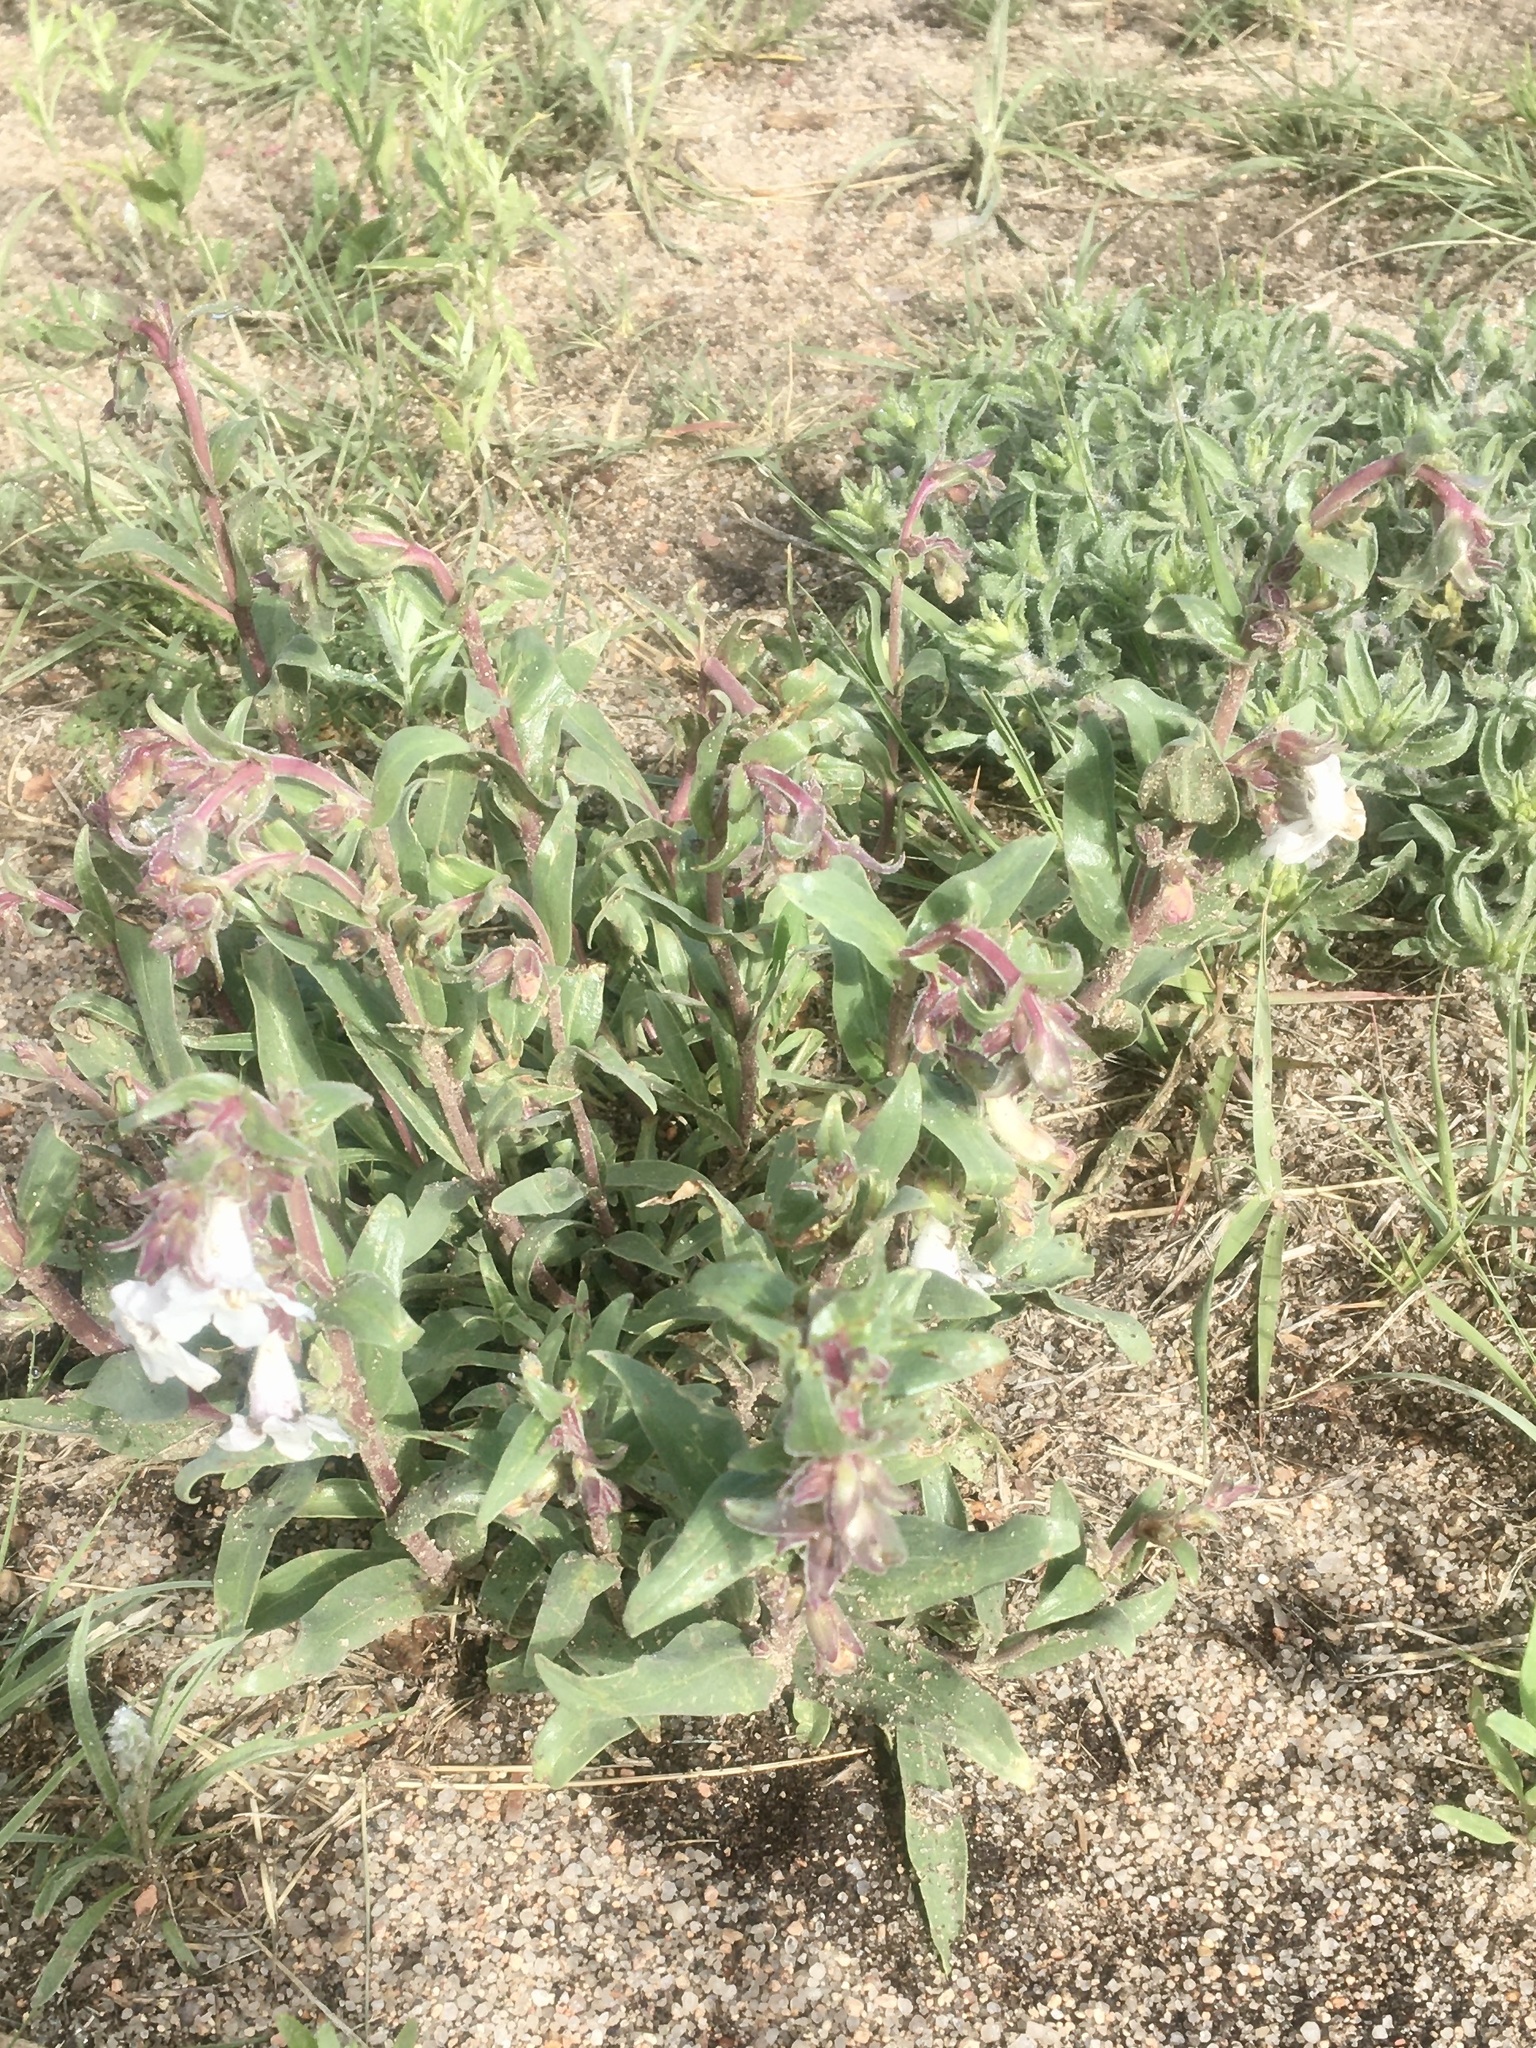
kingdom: Plantae
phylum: Tracheophyta
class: Magnoliopsida
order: Lamiales
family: Plantaginaceae
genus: Penstemon
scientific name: Penstemon albidus
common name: White beardtongue
